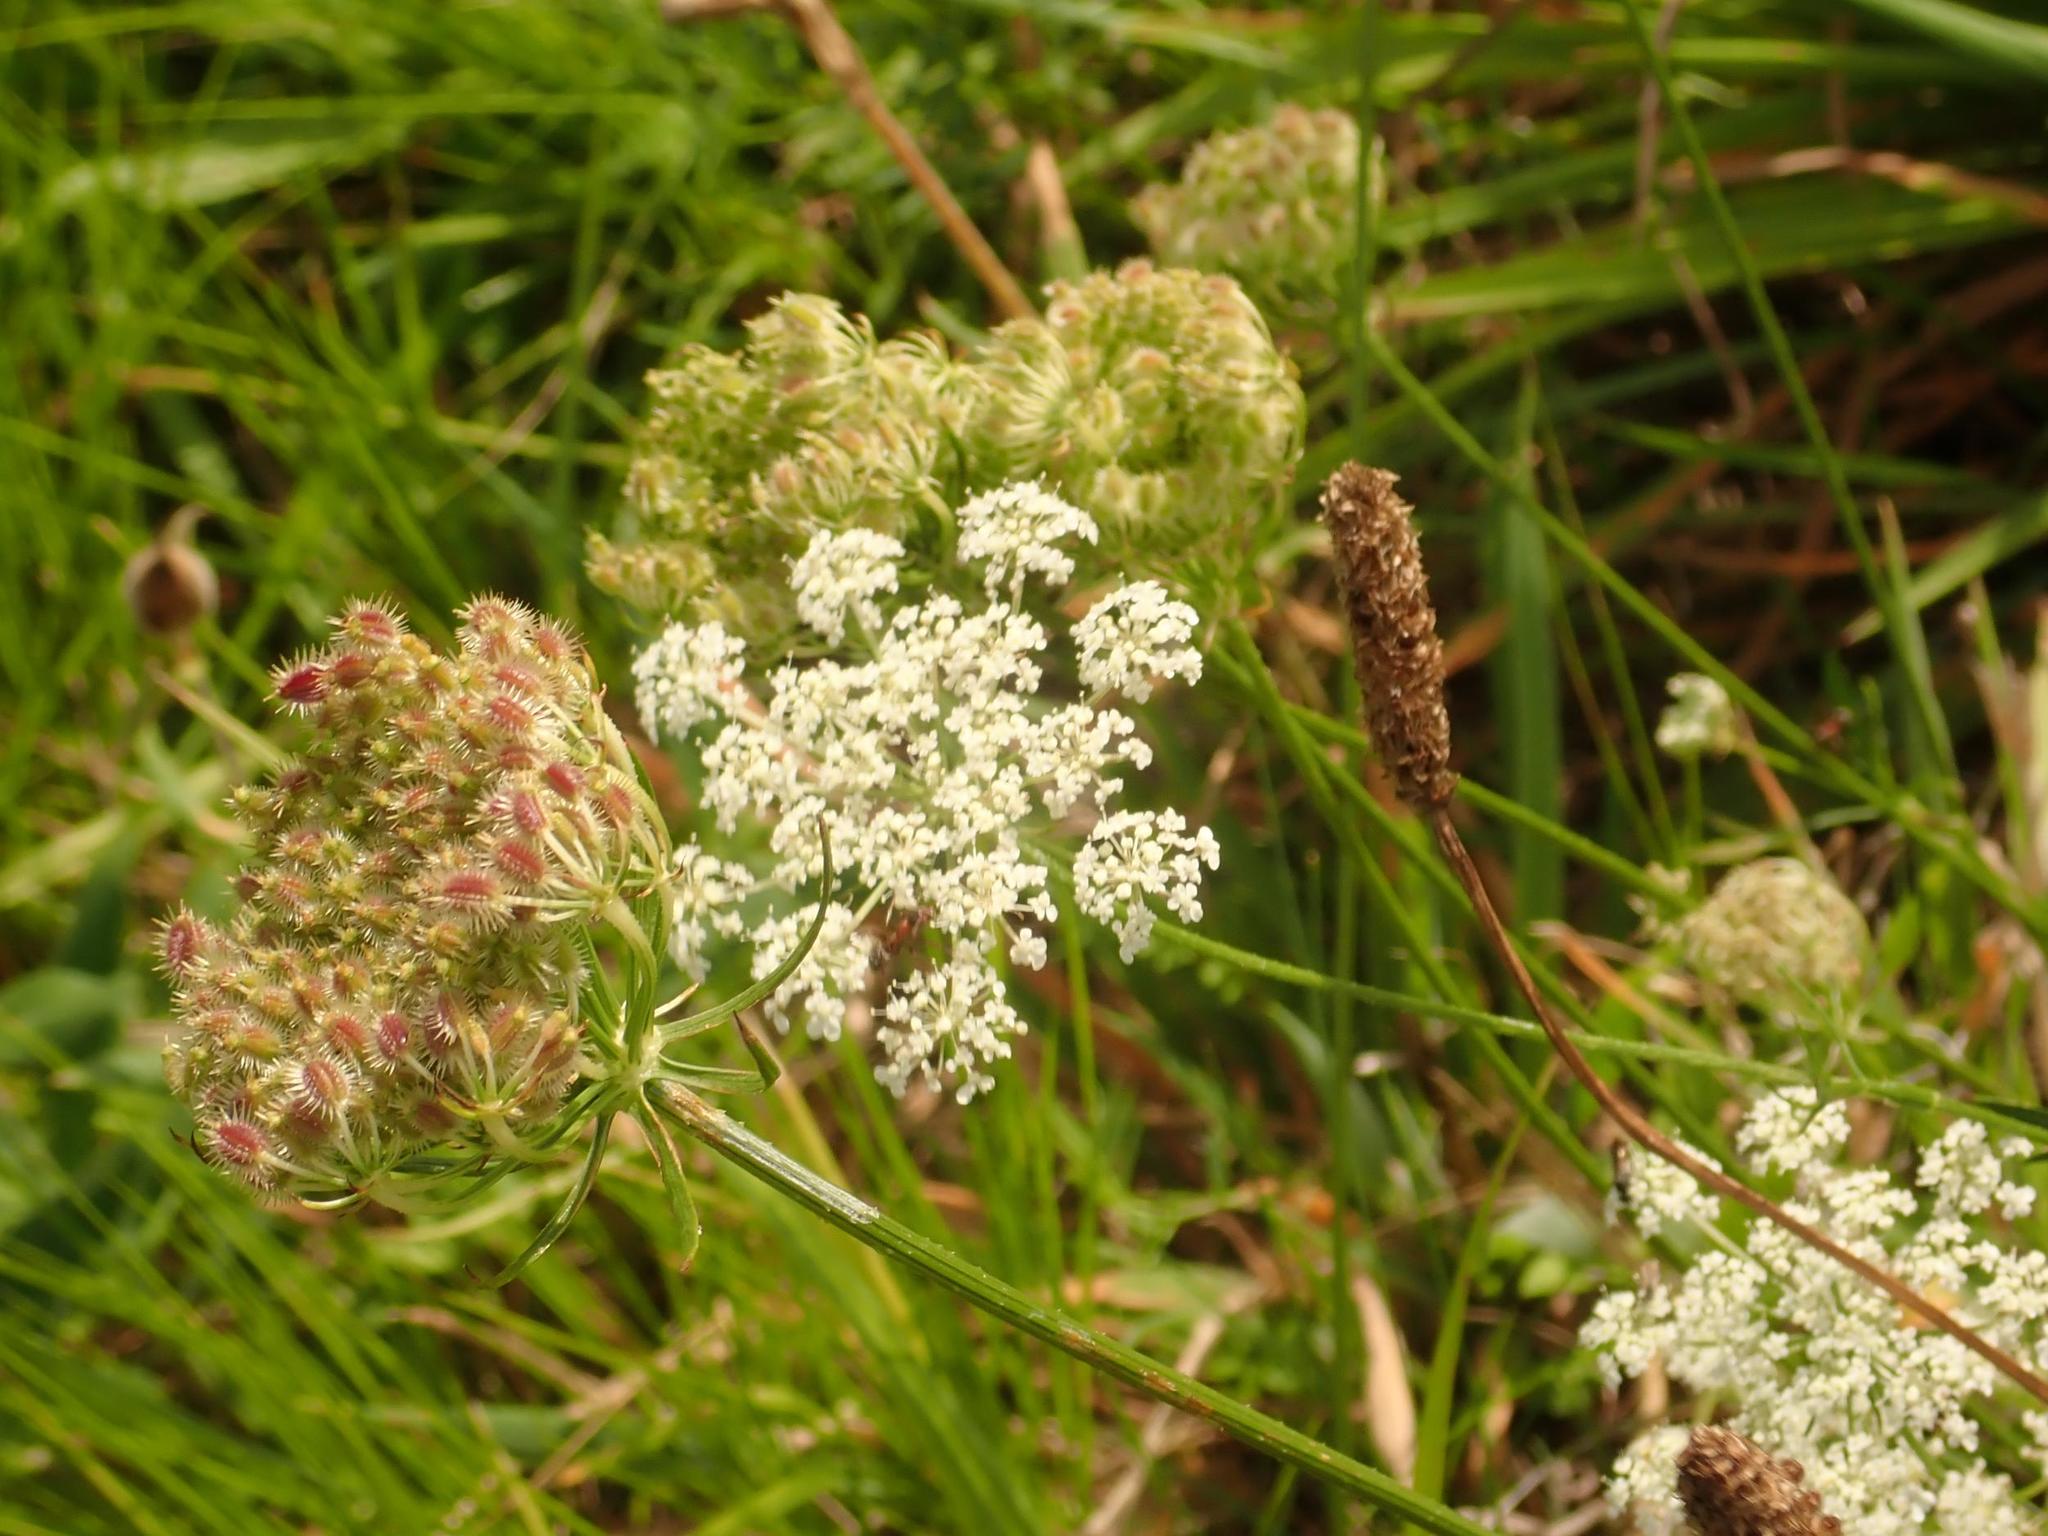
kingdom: Plantae
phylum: Tracheophyta
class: Magnoliopsida
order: Apiales
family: Apiaceae
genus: Daucus
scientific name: Daucus carota
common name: Wild carrot
